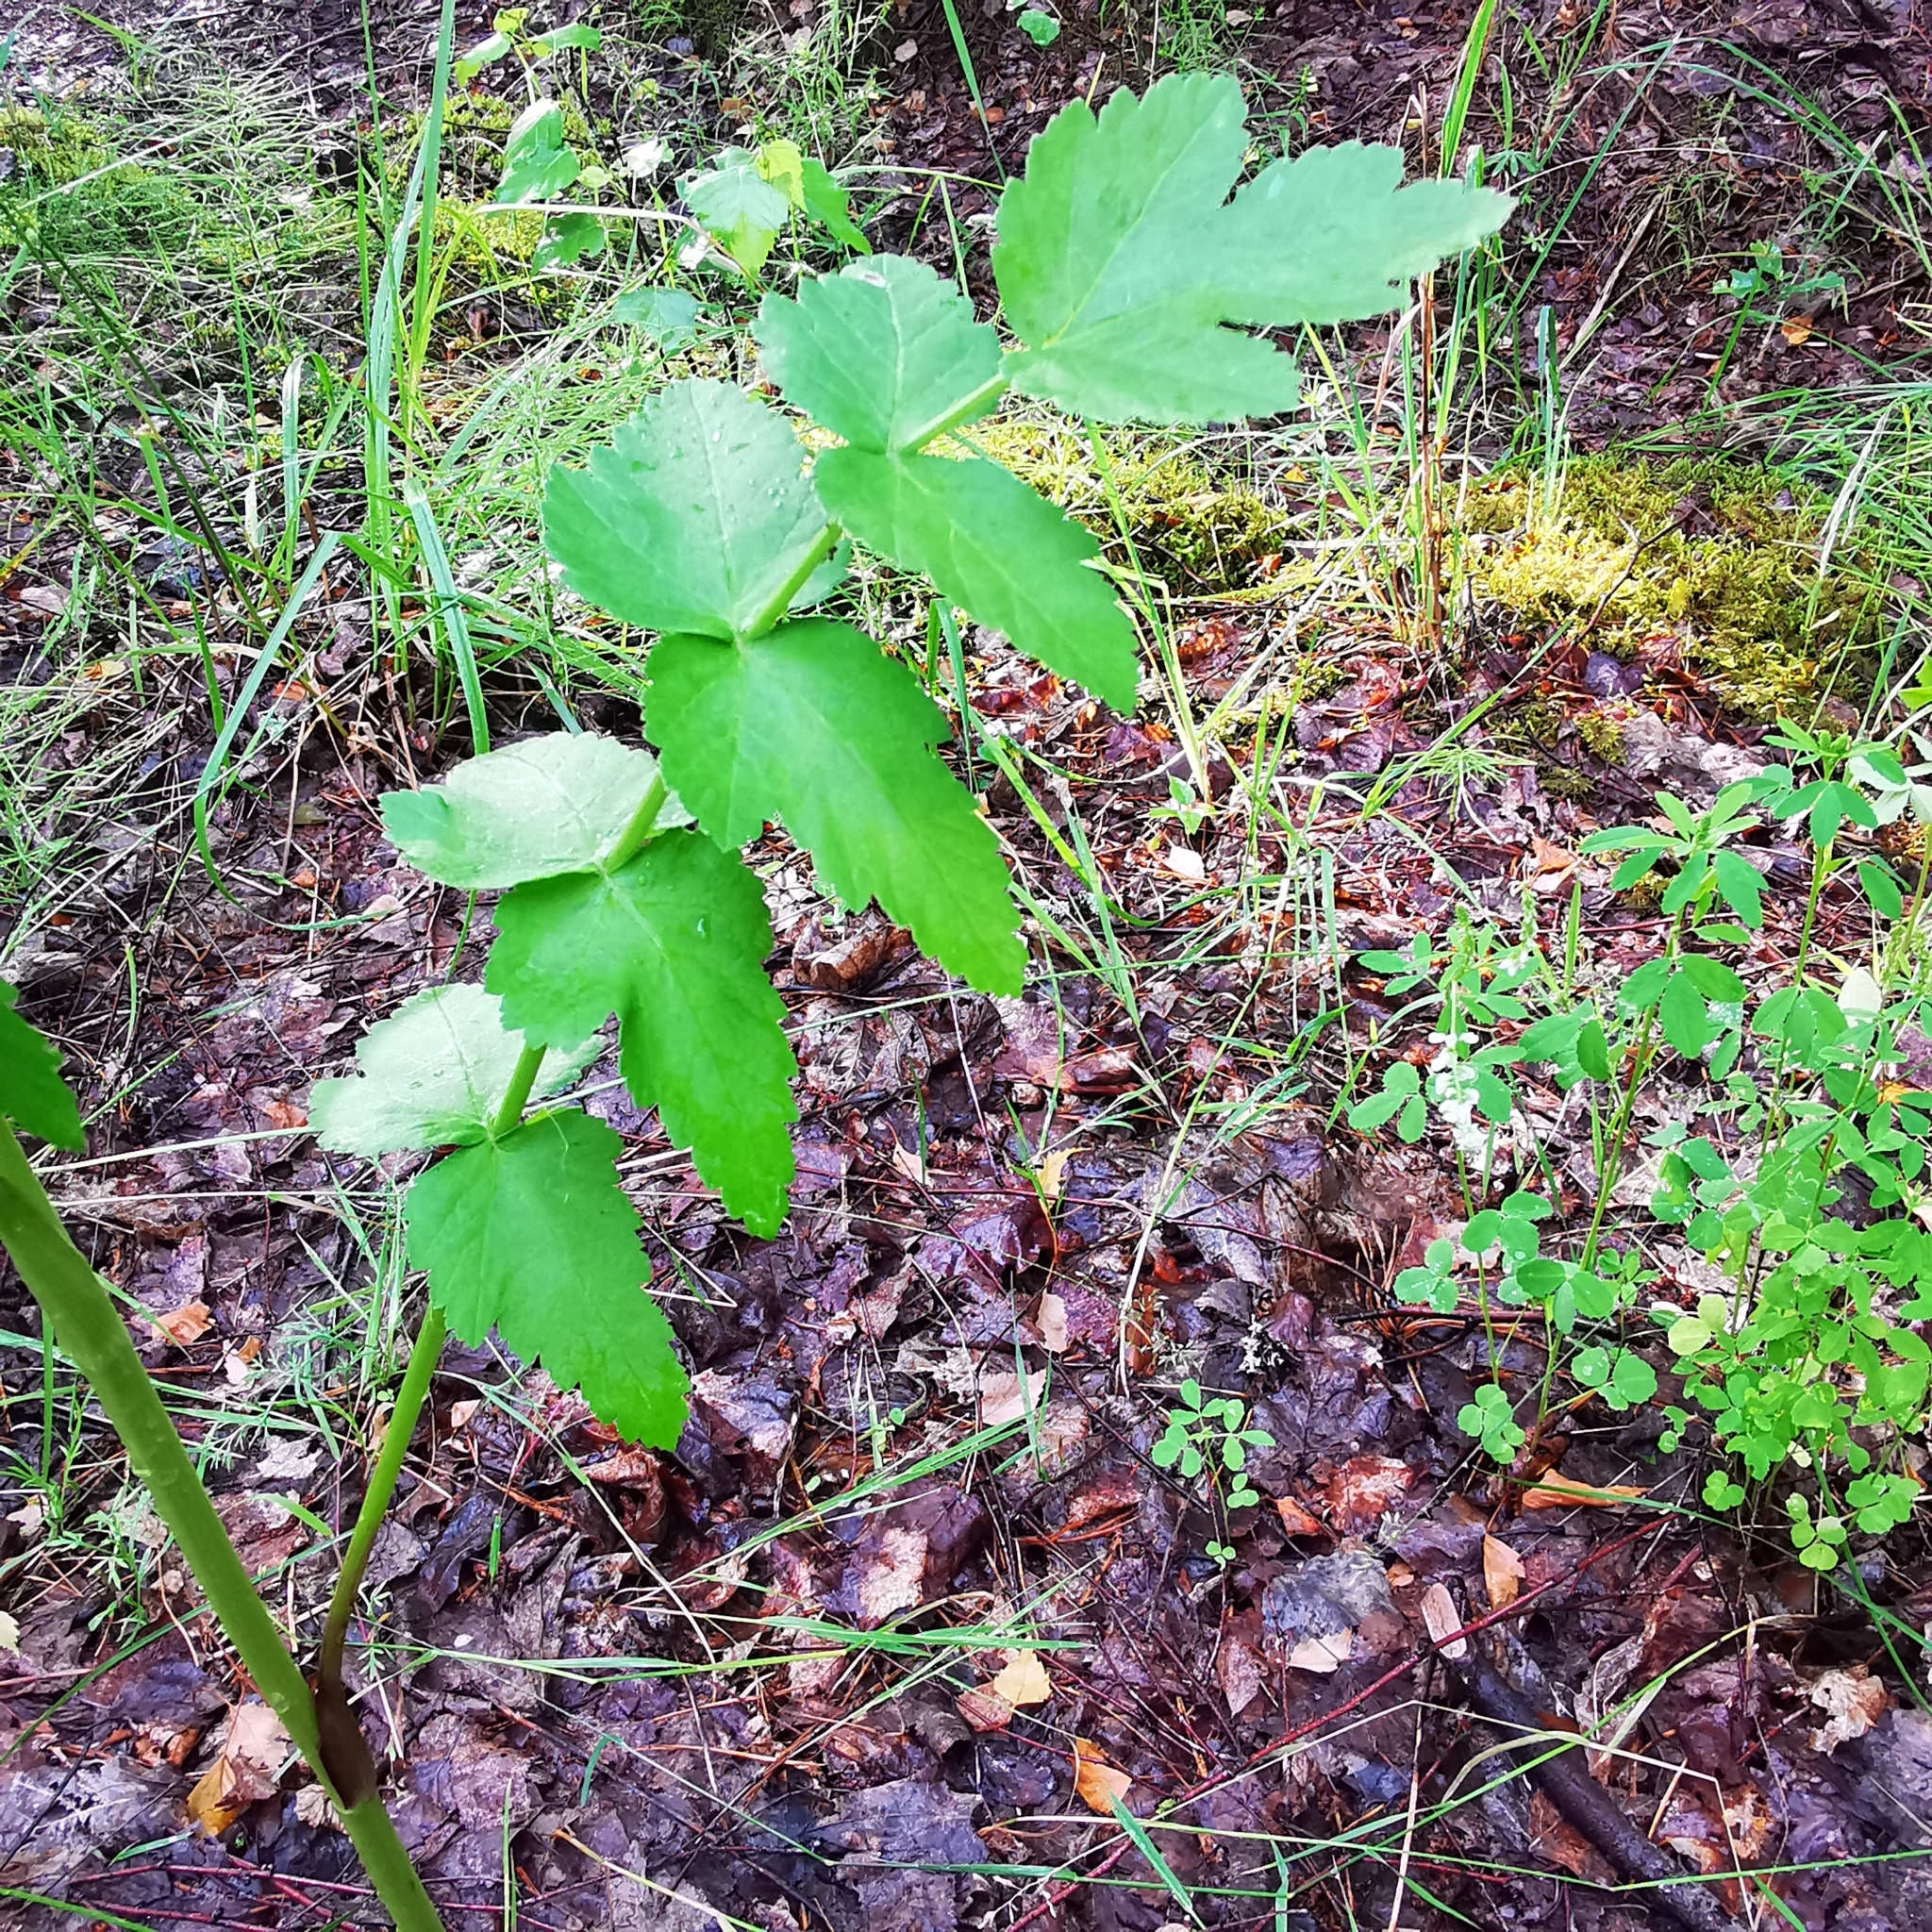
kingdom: Plantae
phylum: Tracheophyta
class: Magnoliopsida
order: Apiales
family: Apiaceae
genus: Pastinaca
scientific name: Pastinaca sativa
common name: Wild parsnip
